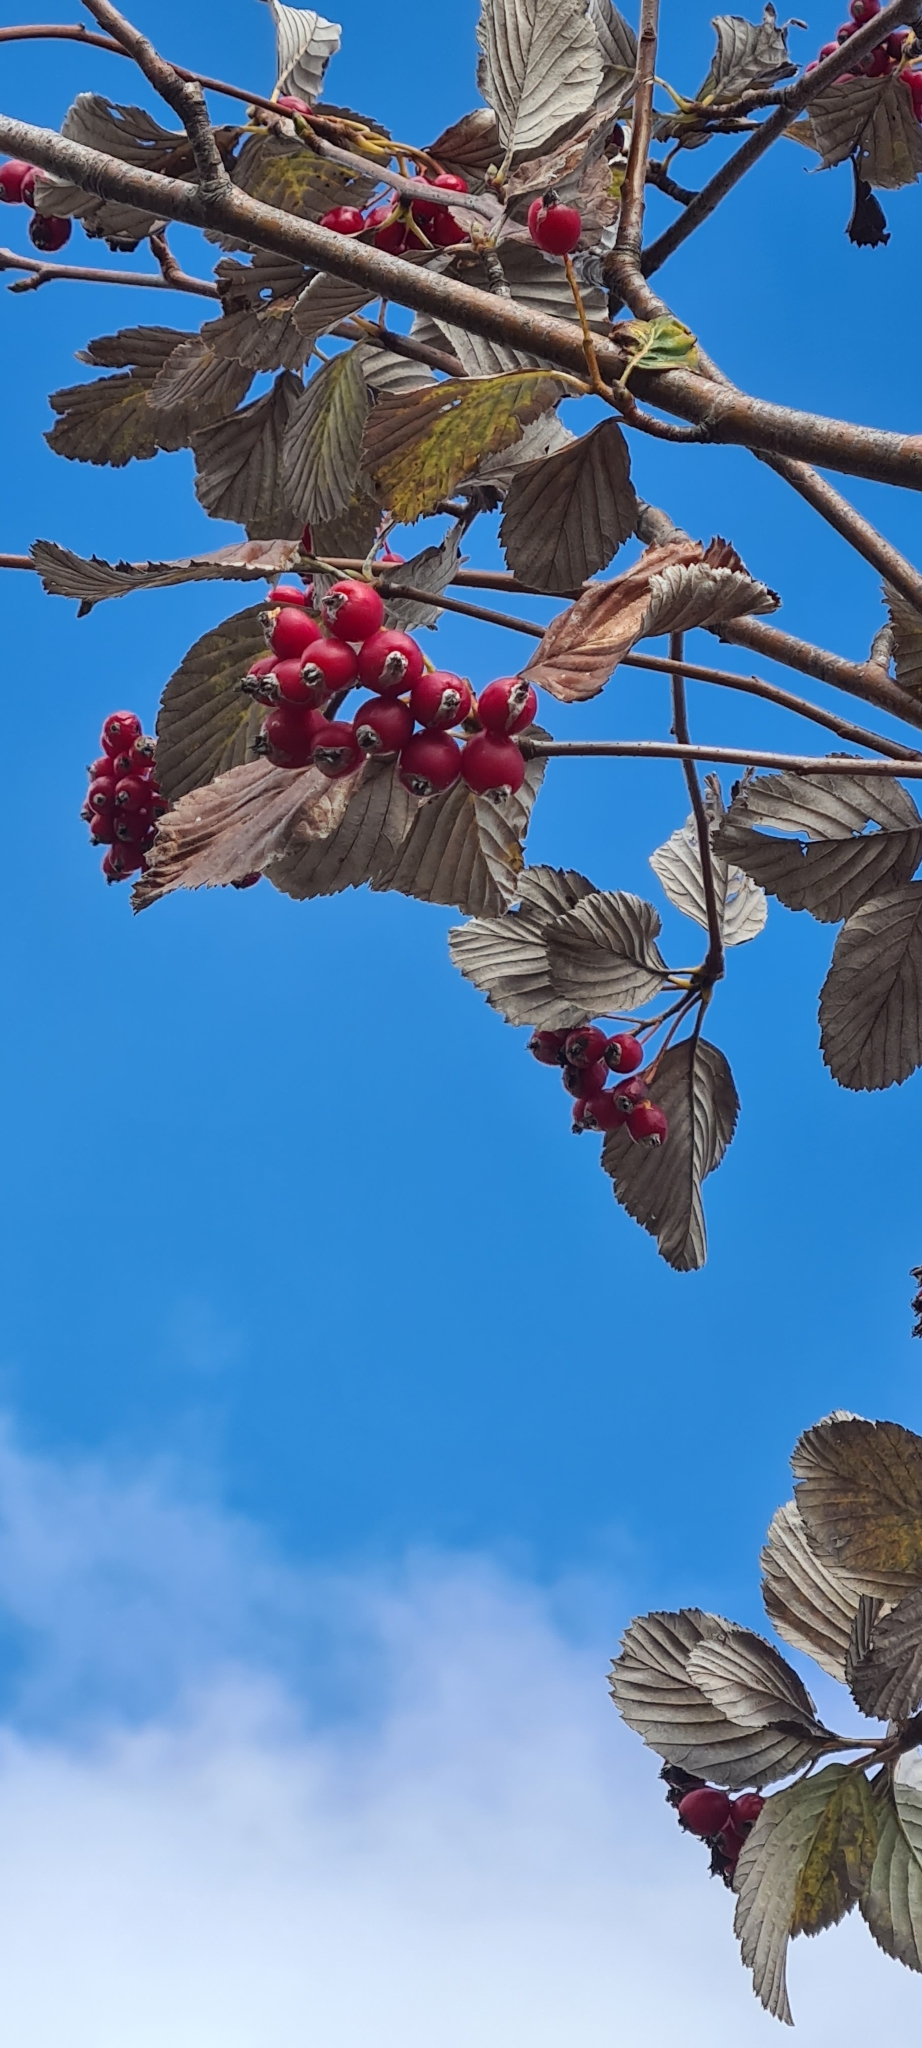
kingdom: Plantae
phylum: Tracheophyta
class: Magnoliopsida
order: Rosales
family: Rosaceae
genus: Aria
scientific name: Aria edulis
